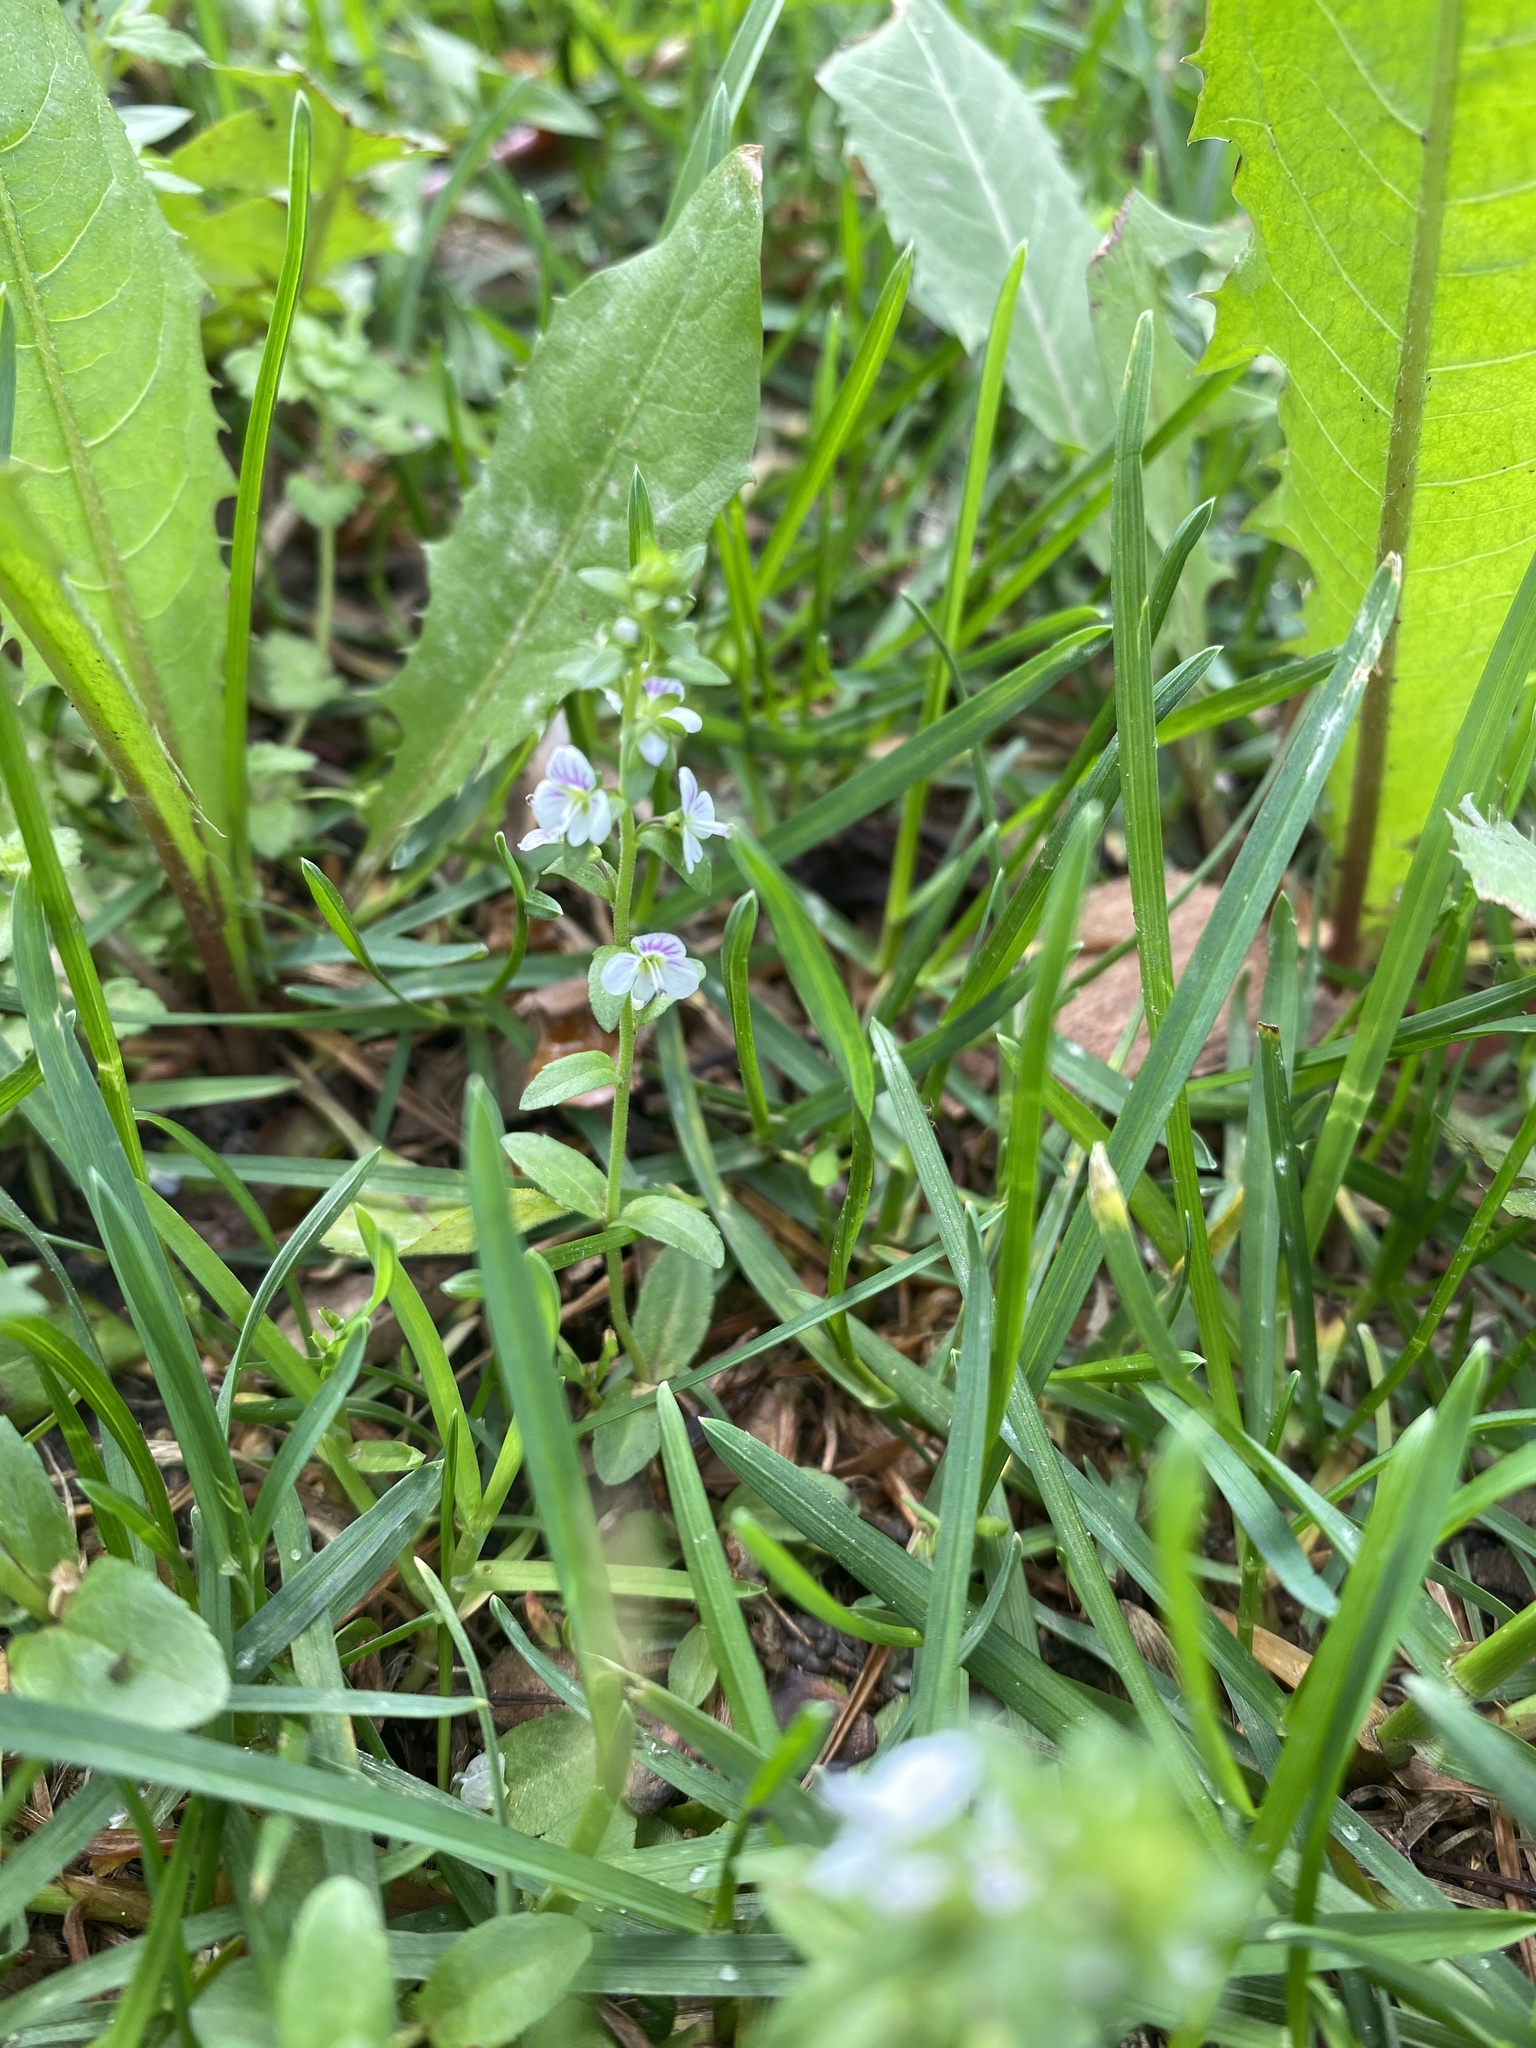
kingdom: Plantae
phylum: Tracheophyta
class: Magnoliopsida
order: Lamiales
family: Plantaginaceae
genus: Veronica
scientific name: Veronica serpyllifolia
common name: Thyme-leaved speedwell
